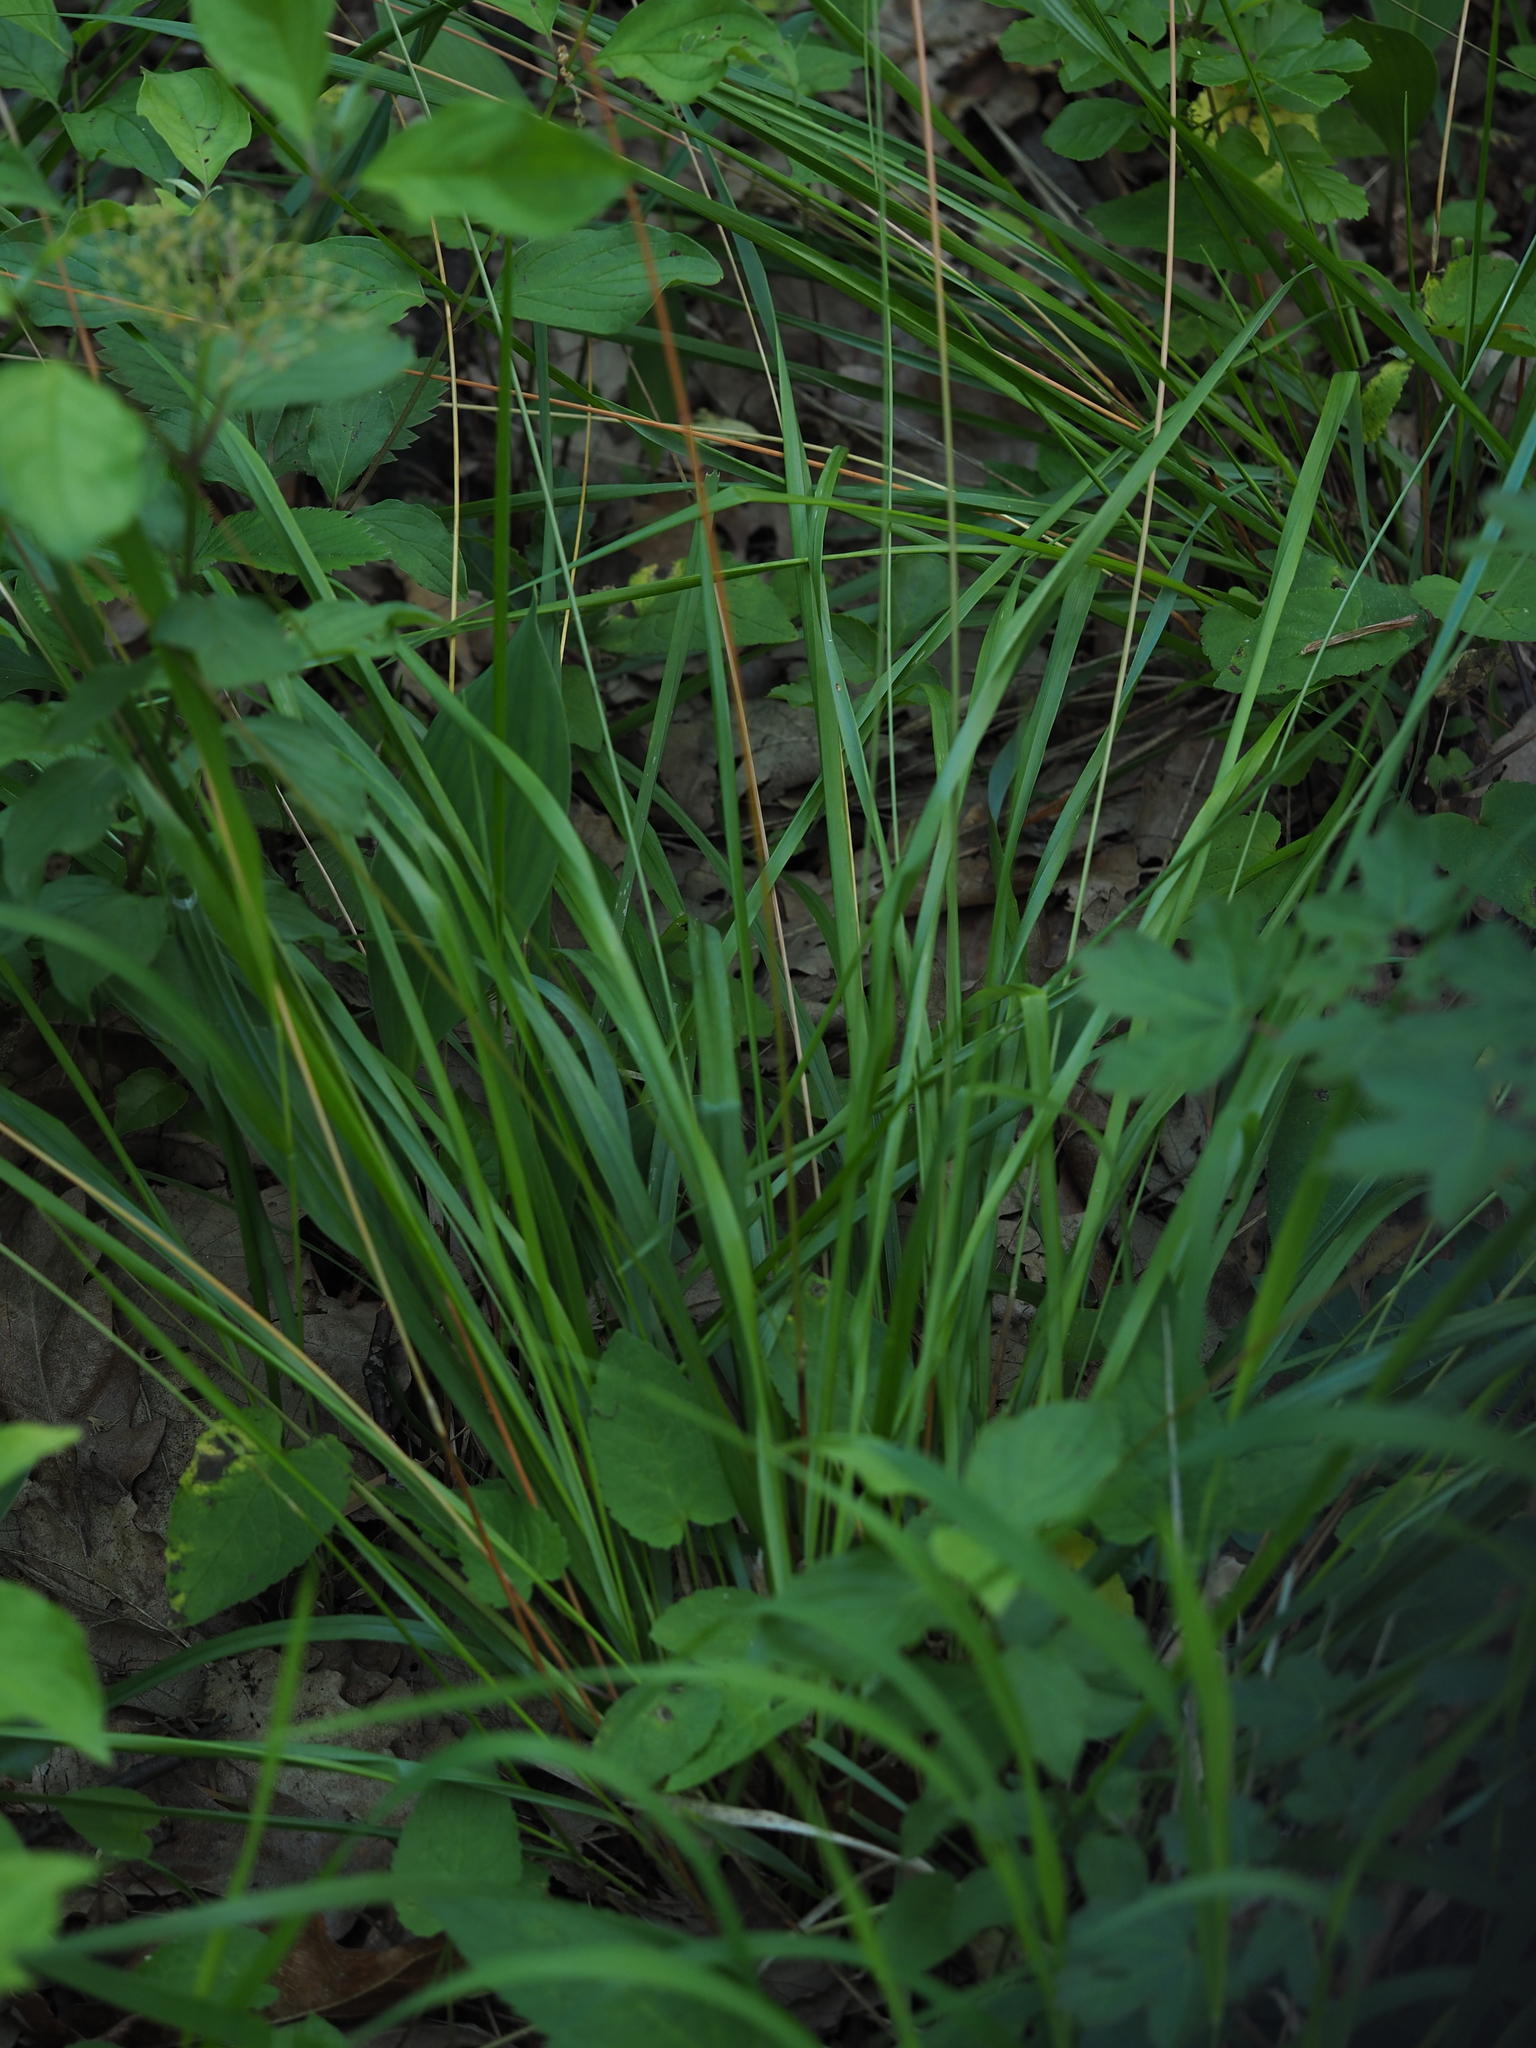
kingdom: Plantae
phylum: Tracheophyta
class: Liliopsida
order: Poales
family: Poaceae
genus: Anthoxanthum
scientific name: Anthoxanthum australe
